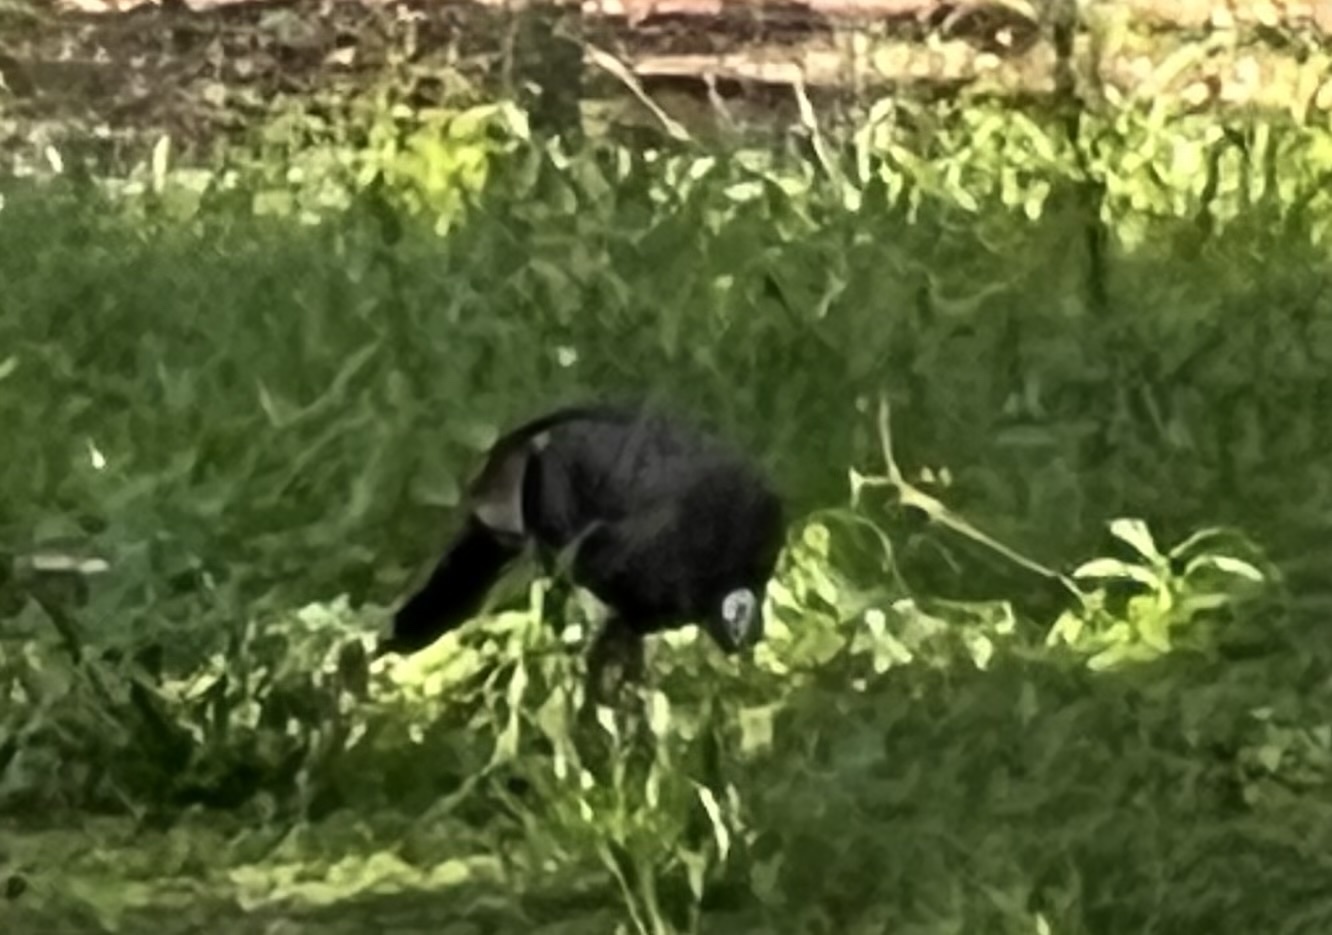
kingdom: Animalia
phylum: Chordata
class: Aves
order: Galliformes
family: Phasianidae
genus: Meleagris
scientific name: Meleagris gallopavo
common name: Wild turkey
